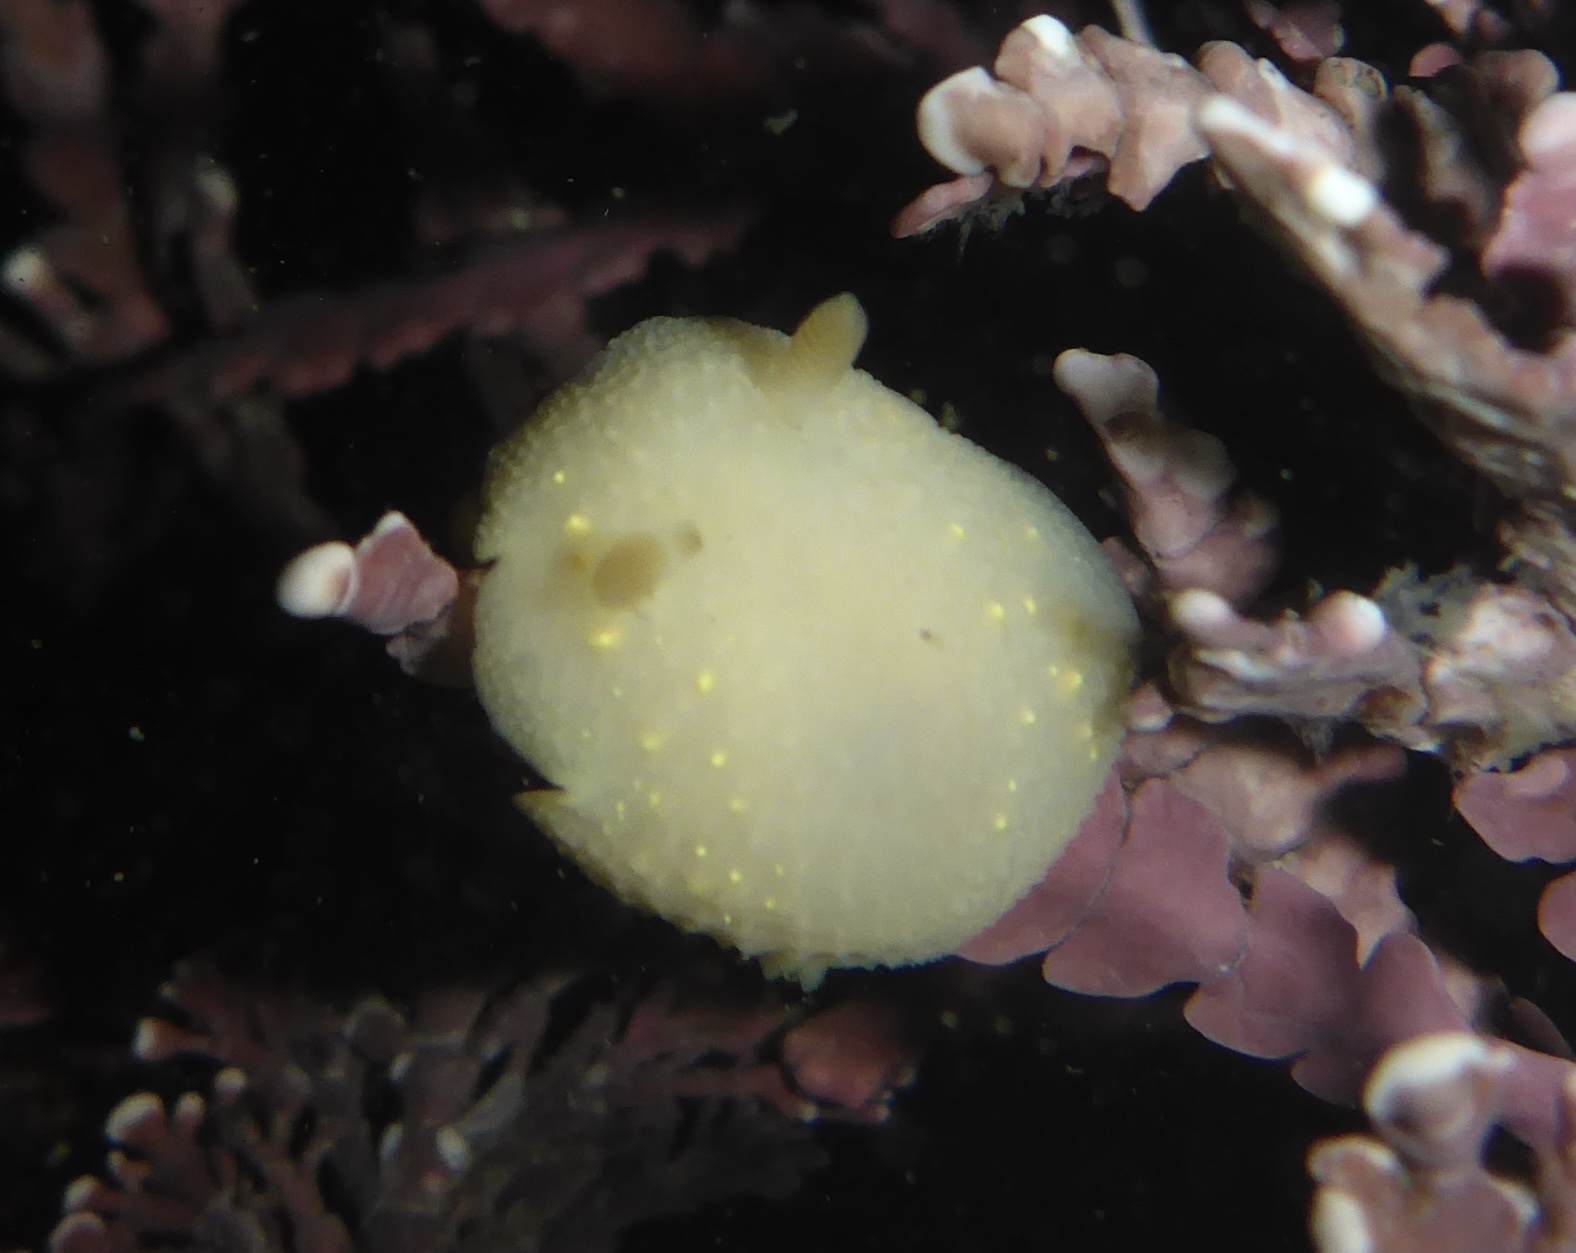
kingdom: Animalia
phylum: Mollusca
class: Gastropoda
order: Nudibranchia
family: Cadlinidae
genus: Cadlina
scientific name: Cadlina modesta
